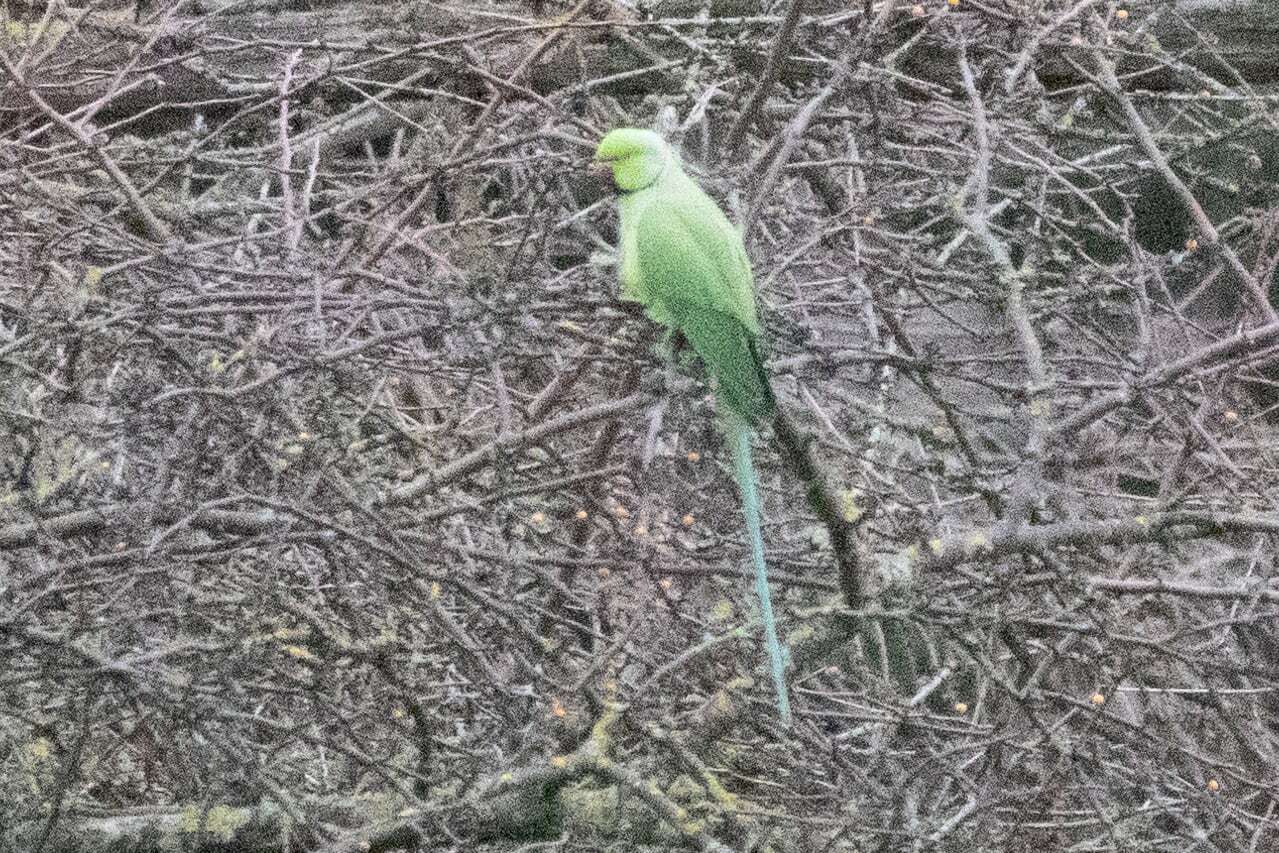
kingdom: Animalia
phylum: Chordata
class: Aves
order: Psittaciformes
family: Psittacidae
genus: Psittacula
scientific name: Psittacula krameri
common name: Rose-ringed parakeet
